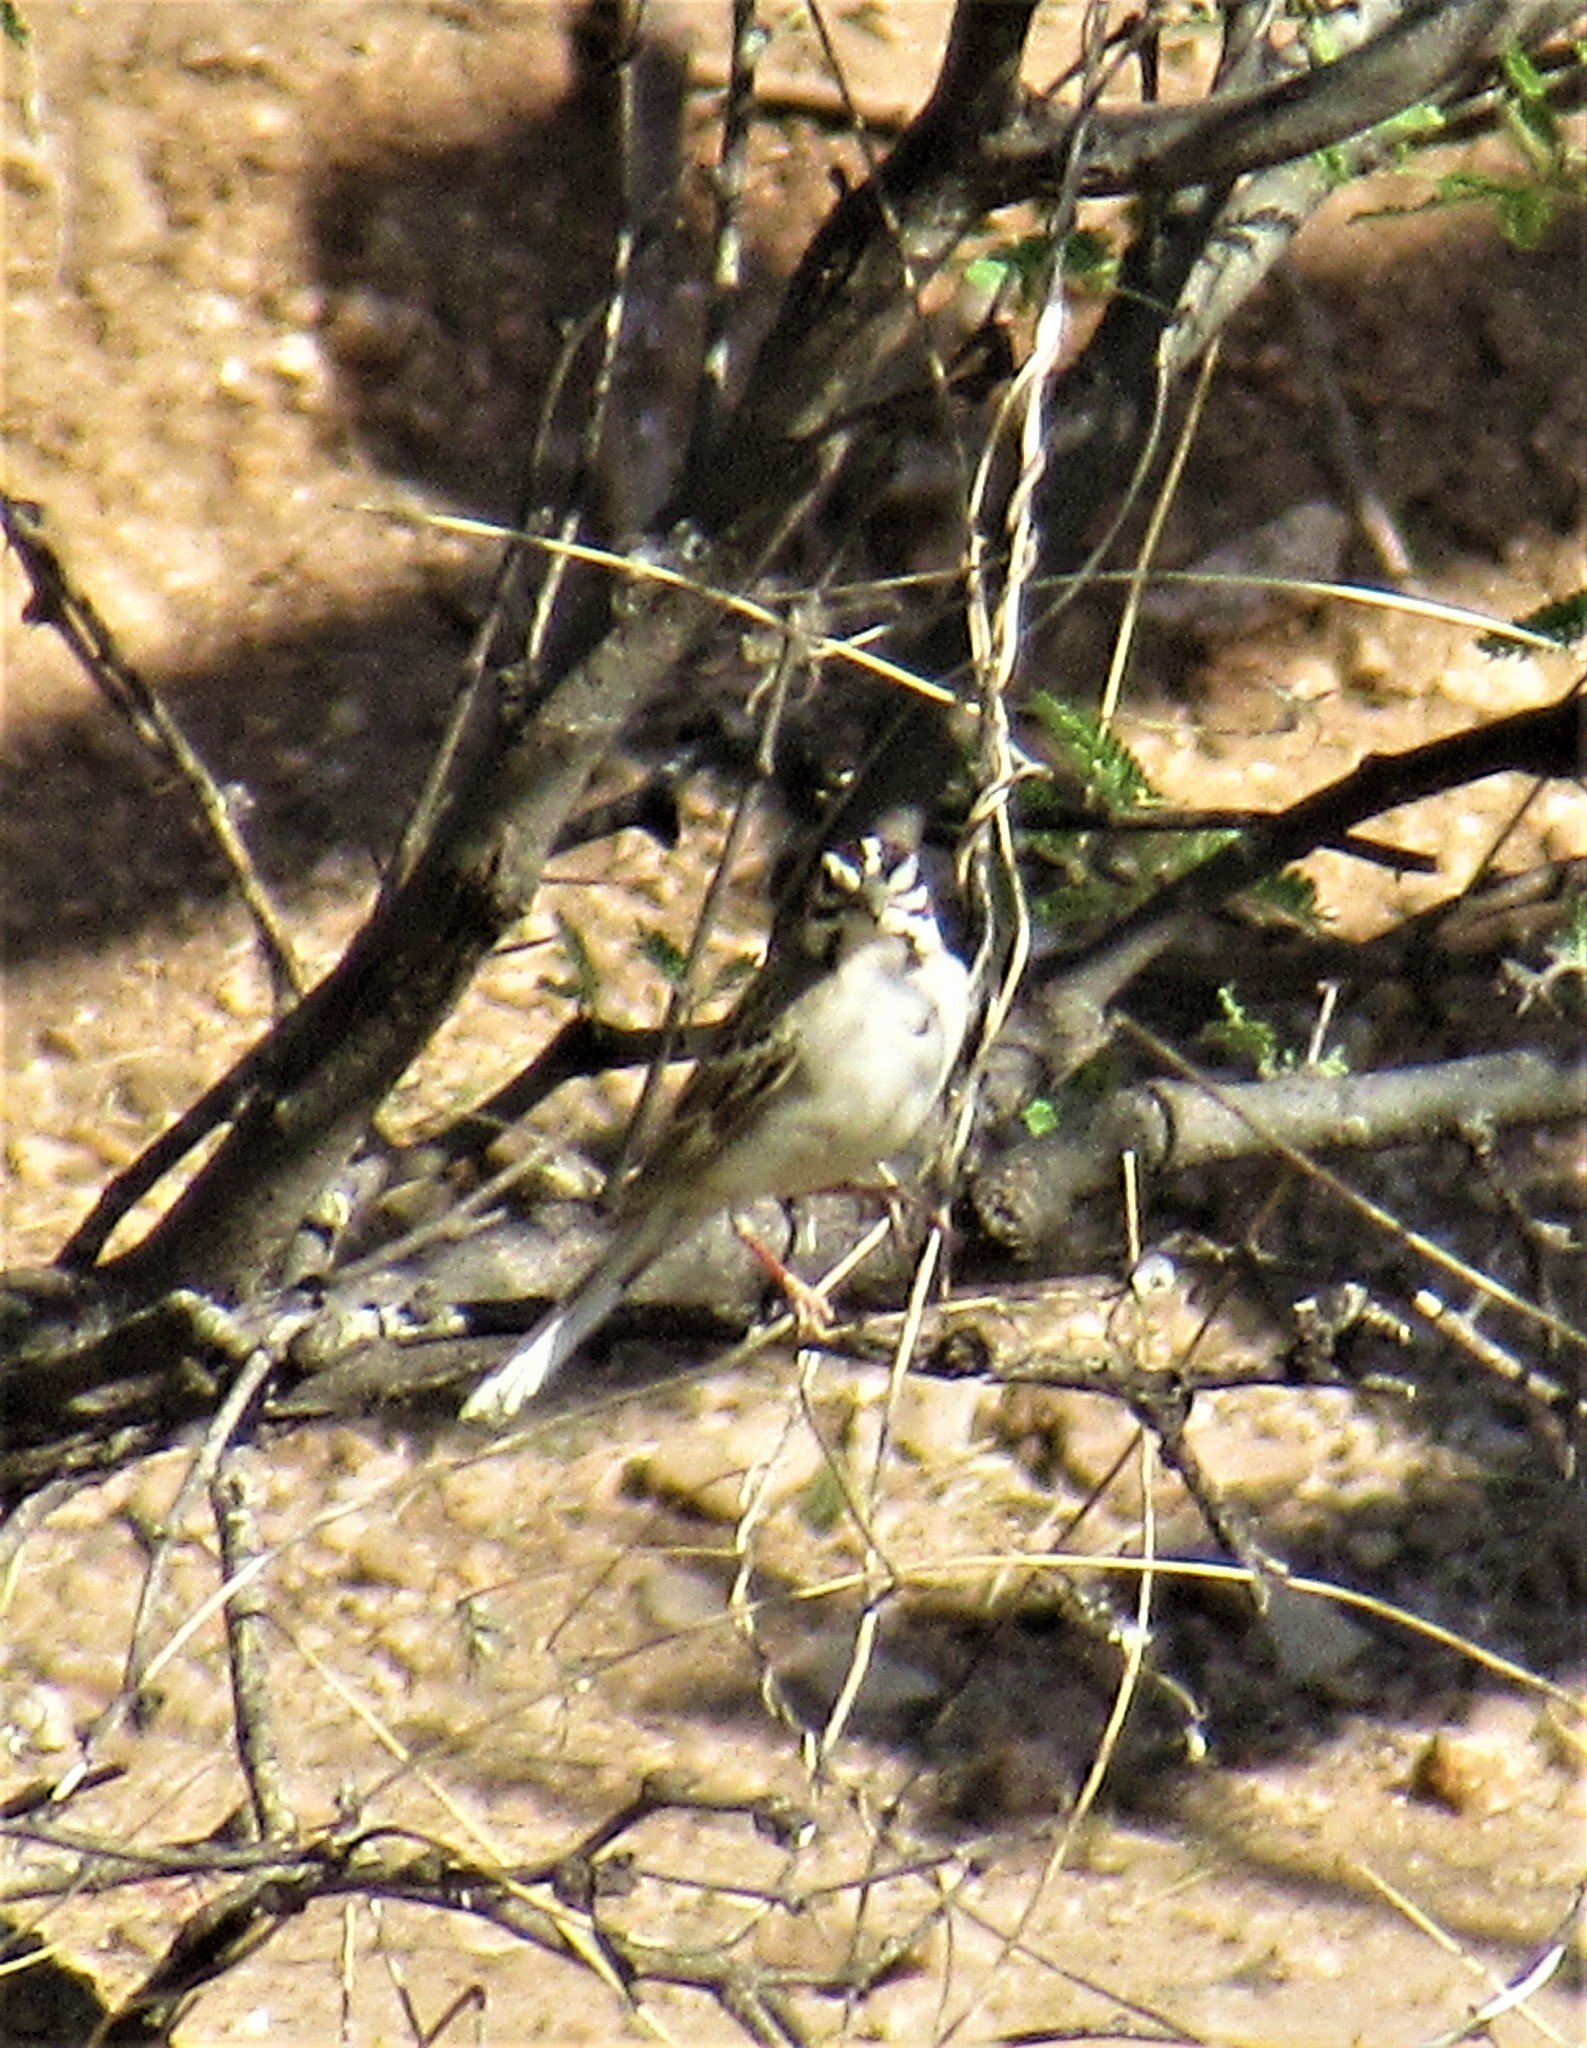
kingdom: Animalia
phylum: Chordata
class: Aves
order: Passeriformes
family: Passerellidae
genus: Chondestes
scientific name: Chondestes grammacus
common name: Lark sparrow
